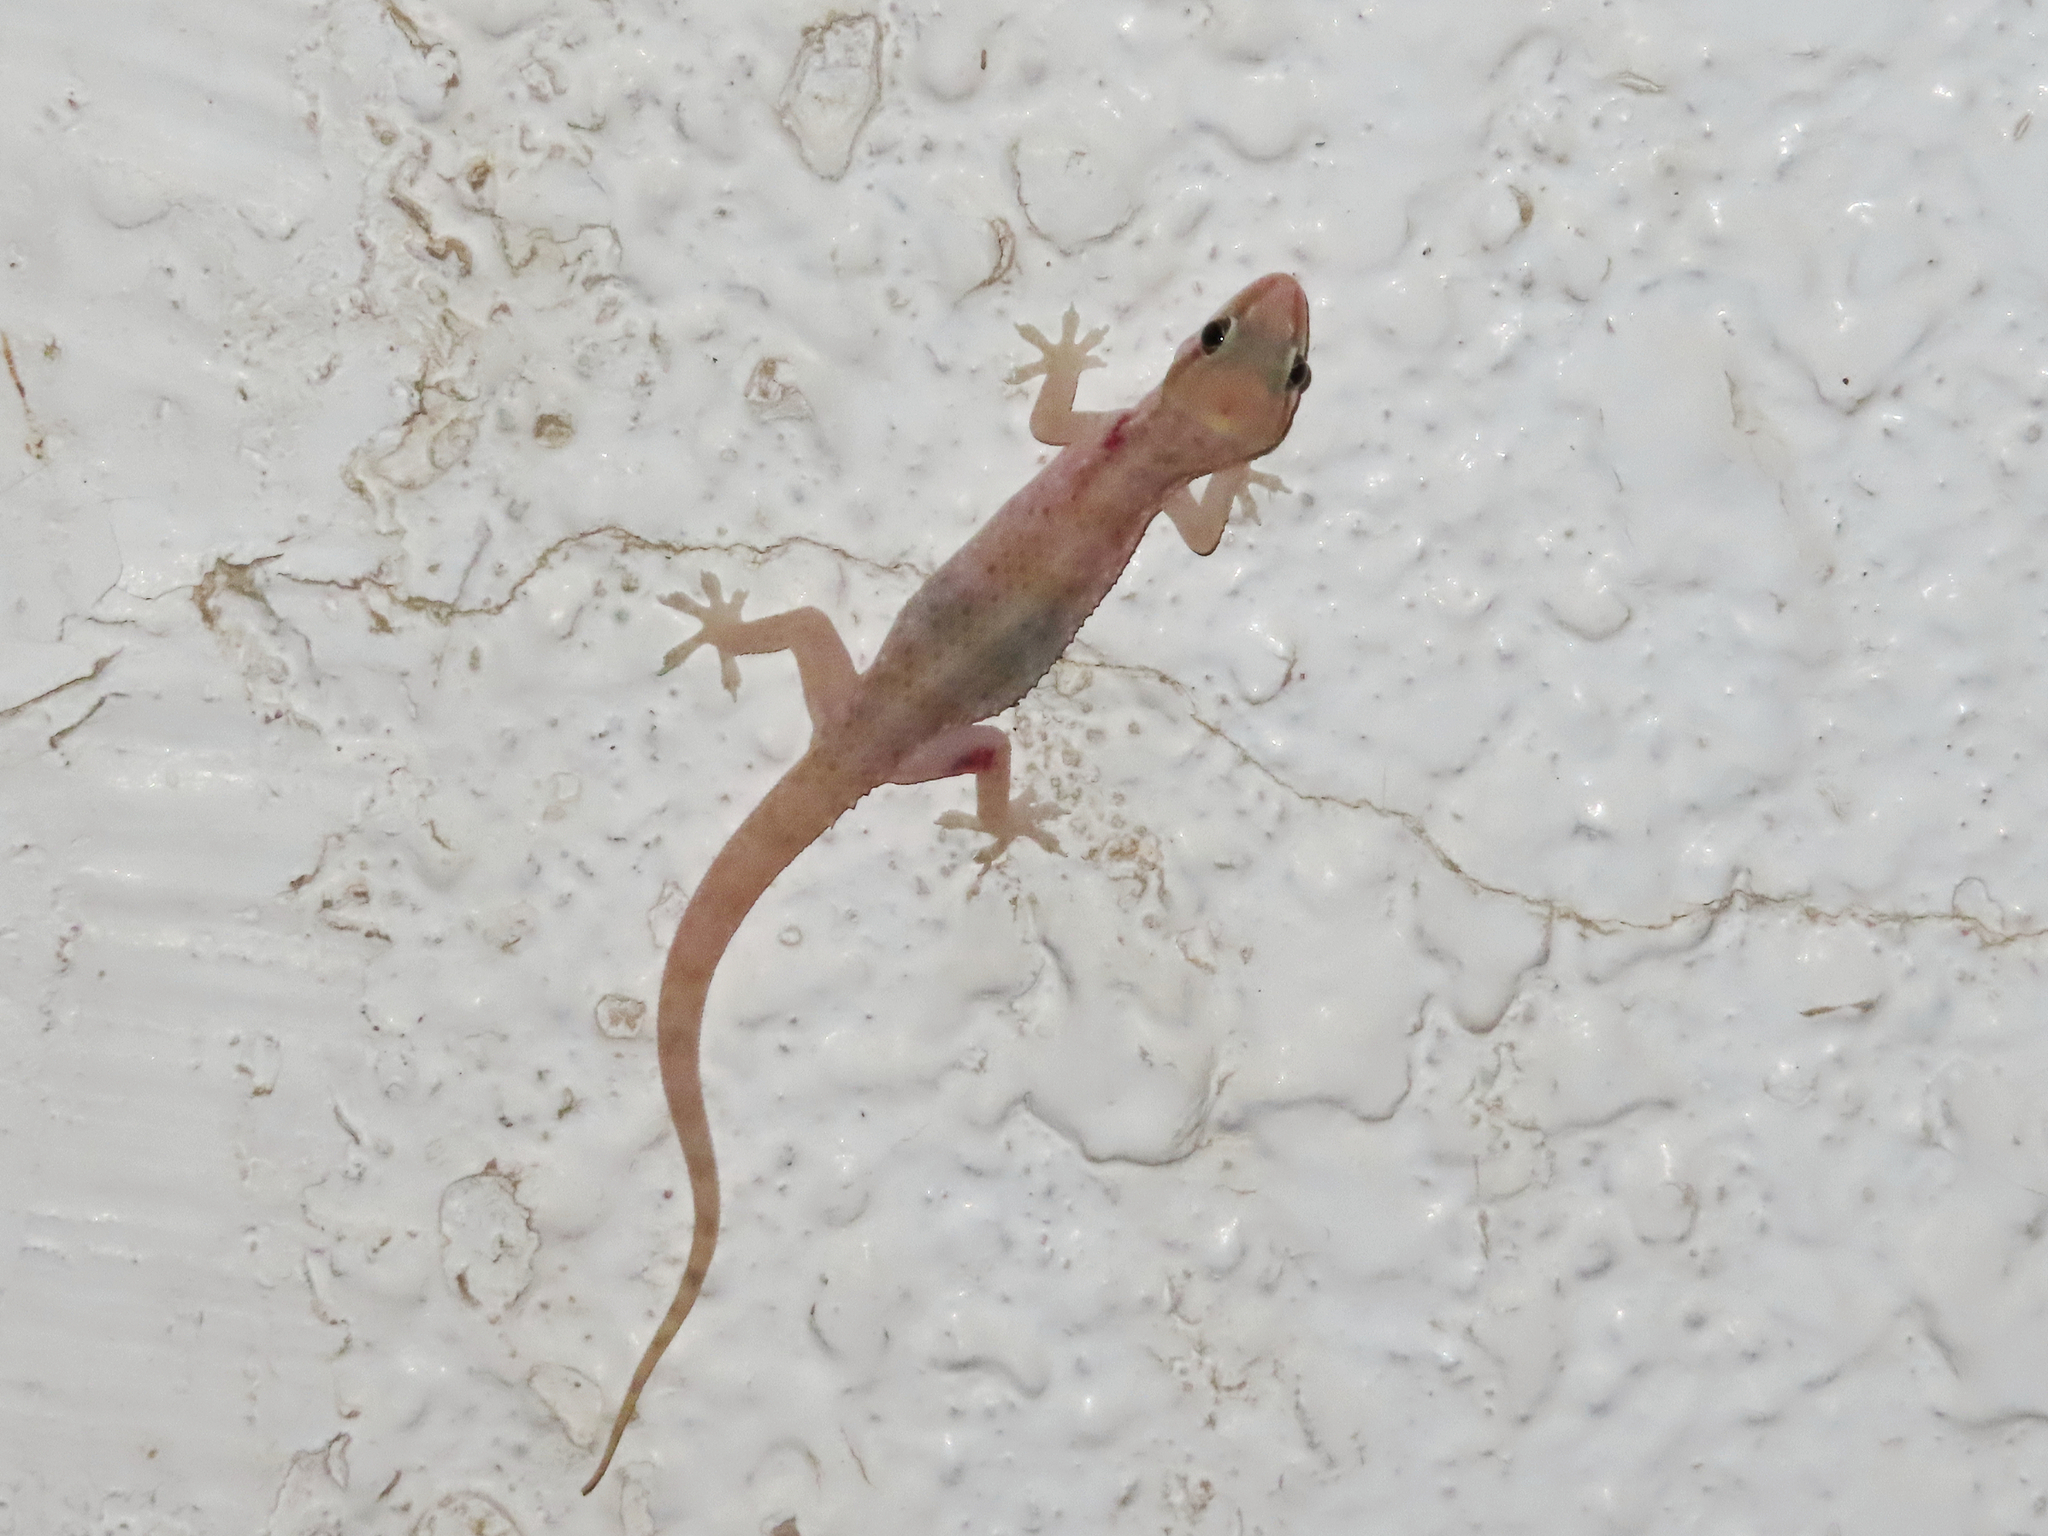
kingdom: Animalia
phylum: Chordata
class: Squamata
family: Gekkonidae
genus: Hemidactylus
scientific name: Hemidactylus robustus
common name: Heyden’s gecko
